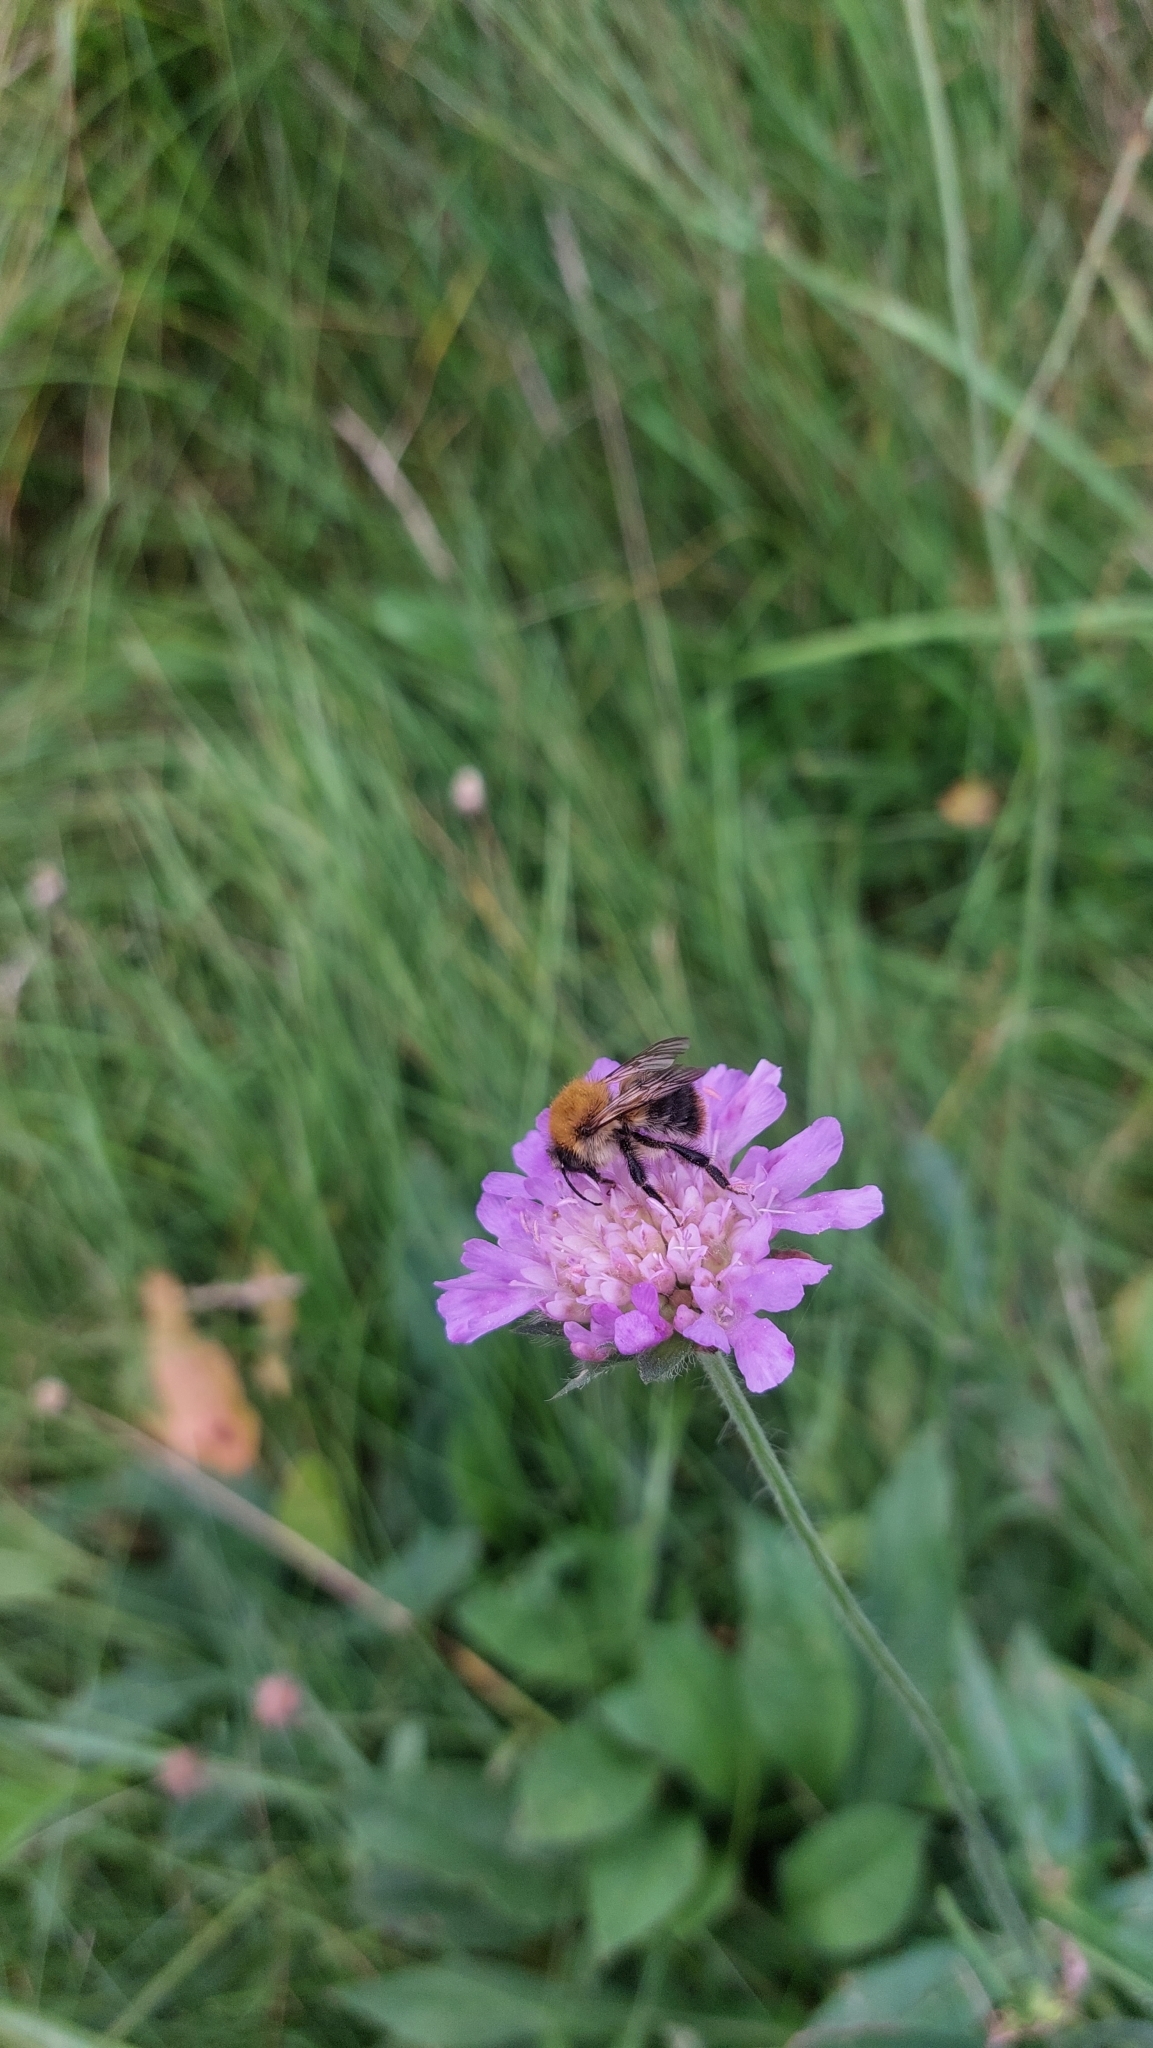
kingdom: Animalia
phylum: Arthropoda
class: Insecta
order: Hymenoptera
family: Apidae
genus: Bombus
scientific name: Bombus pascuorum
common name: Common carder bee
